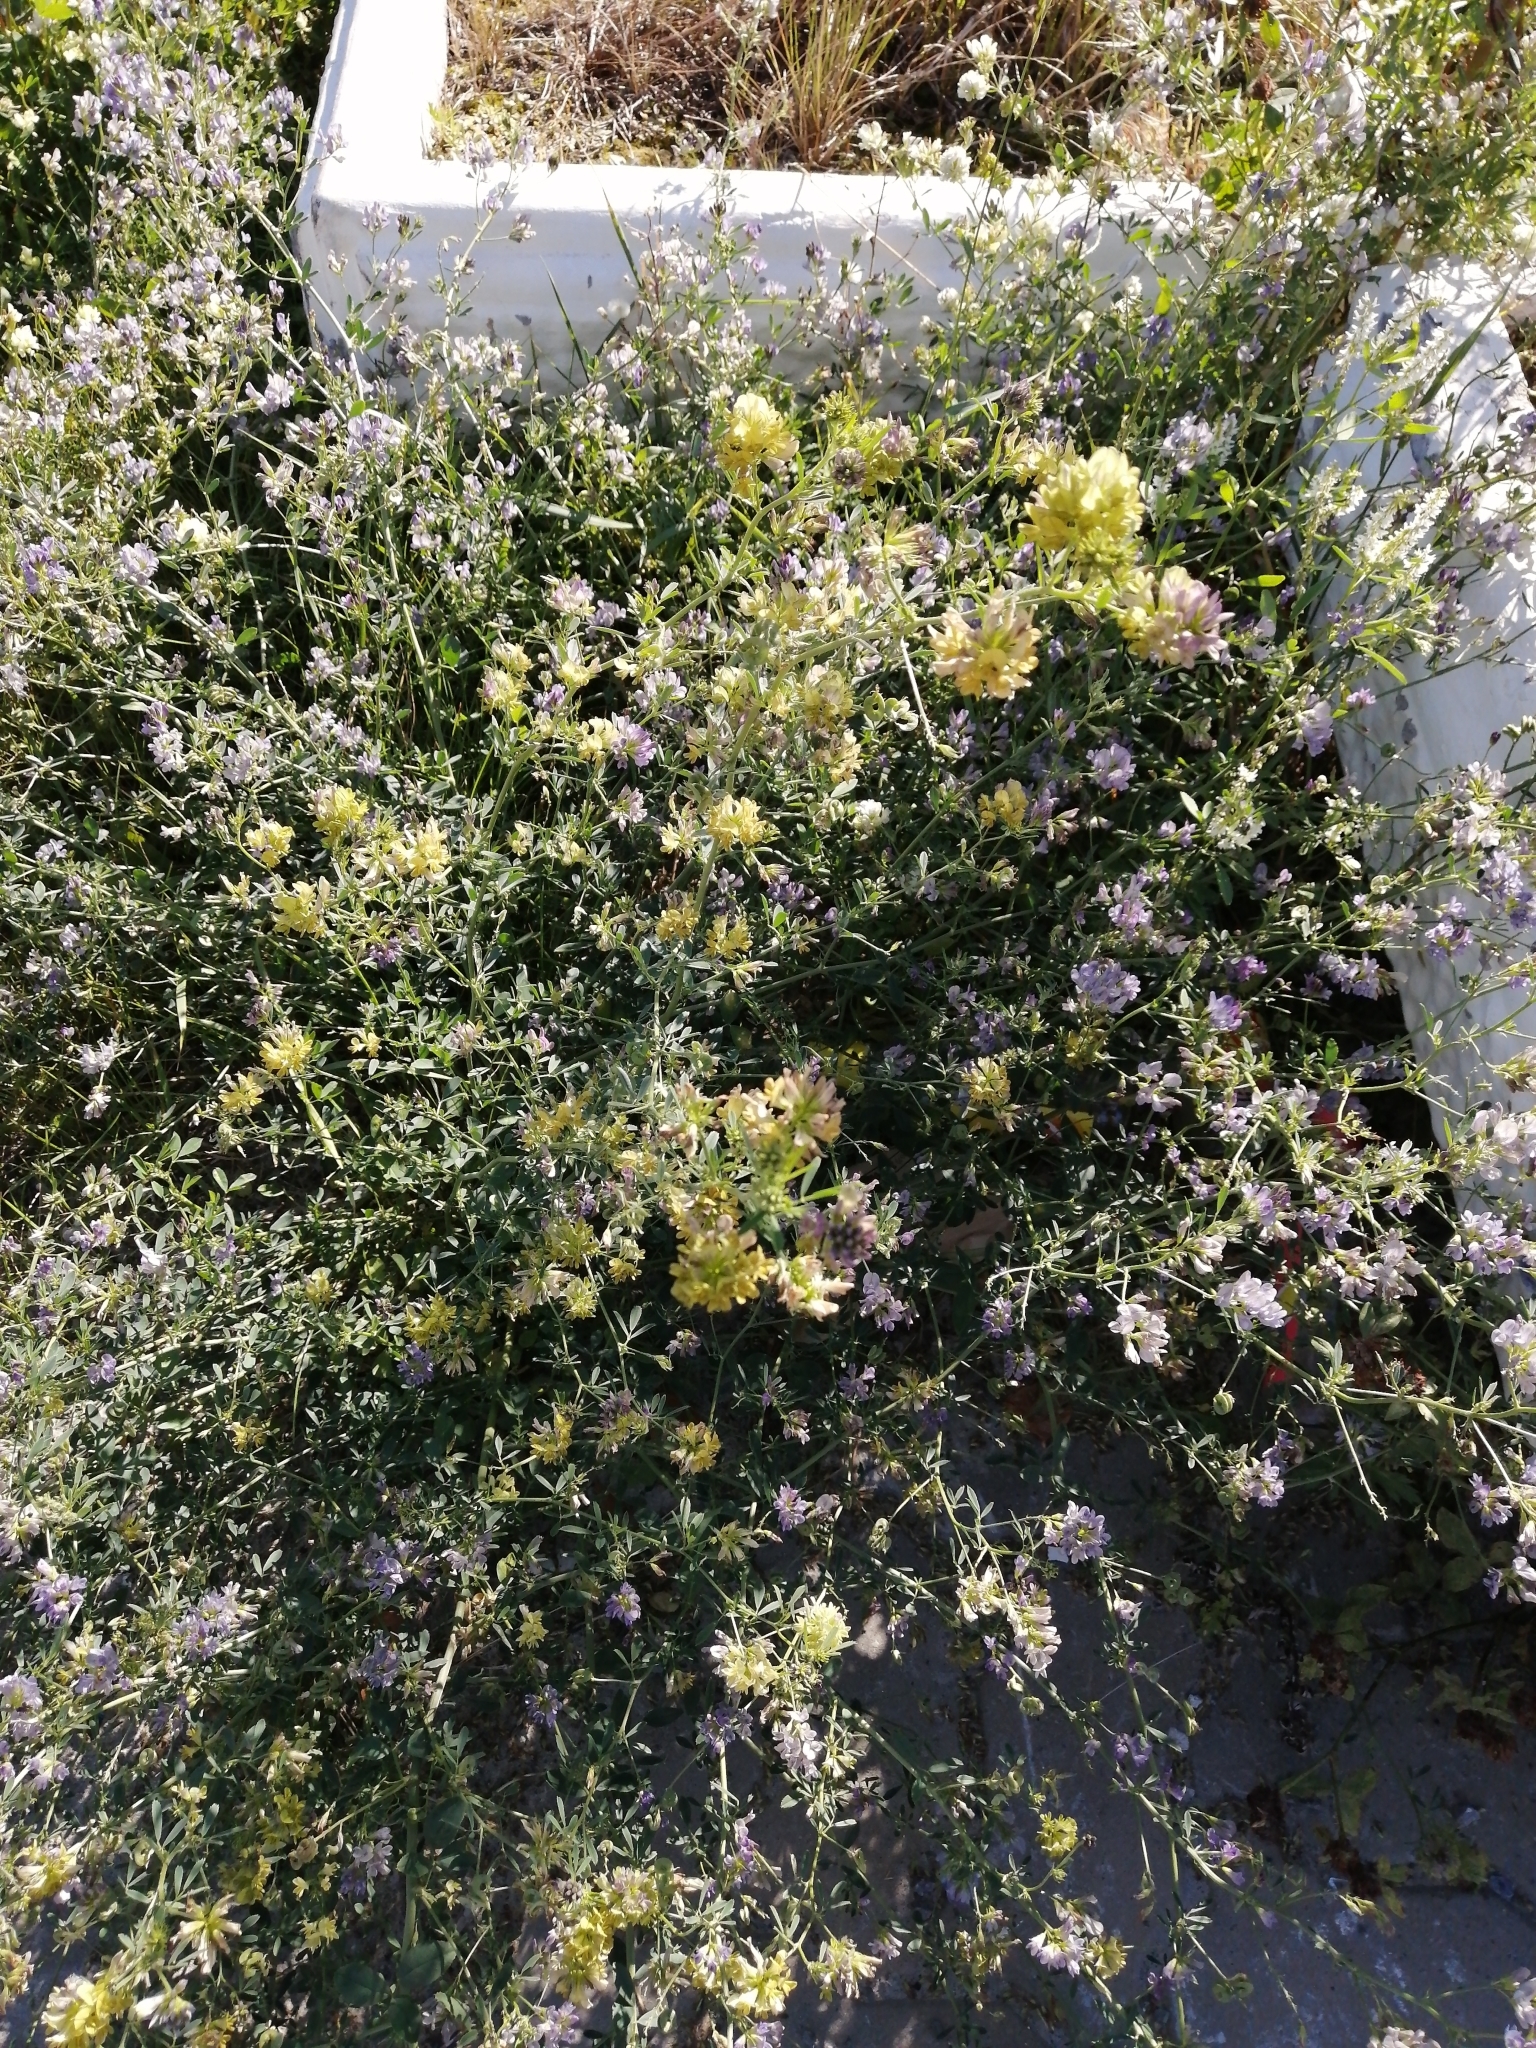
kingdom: Plantae
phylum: Tracheophyta
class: Magnoliopsida
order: Fabales
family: Fabaceae
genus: Medicago
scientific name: Medicago varia
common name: Sand lucerne
